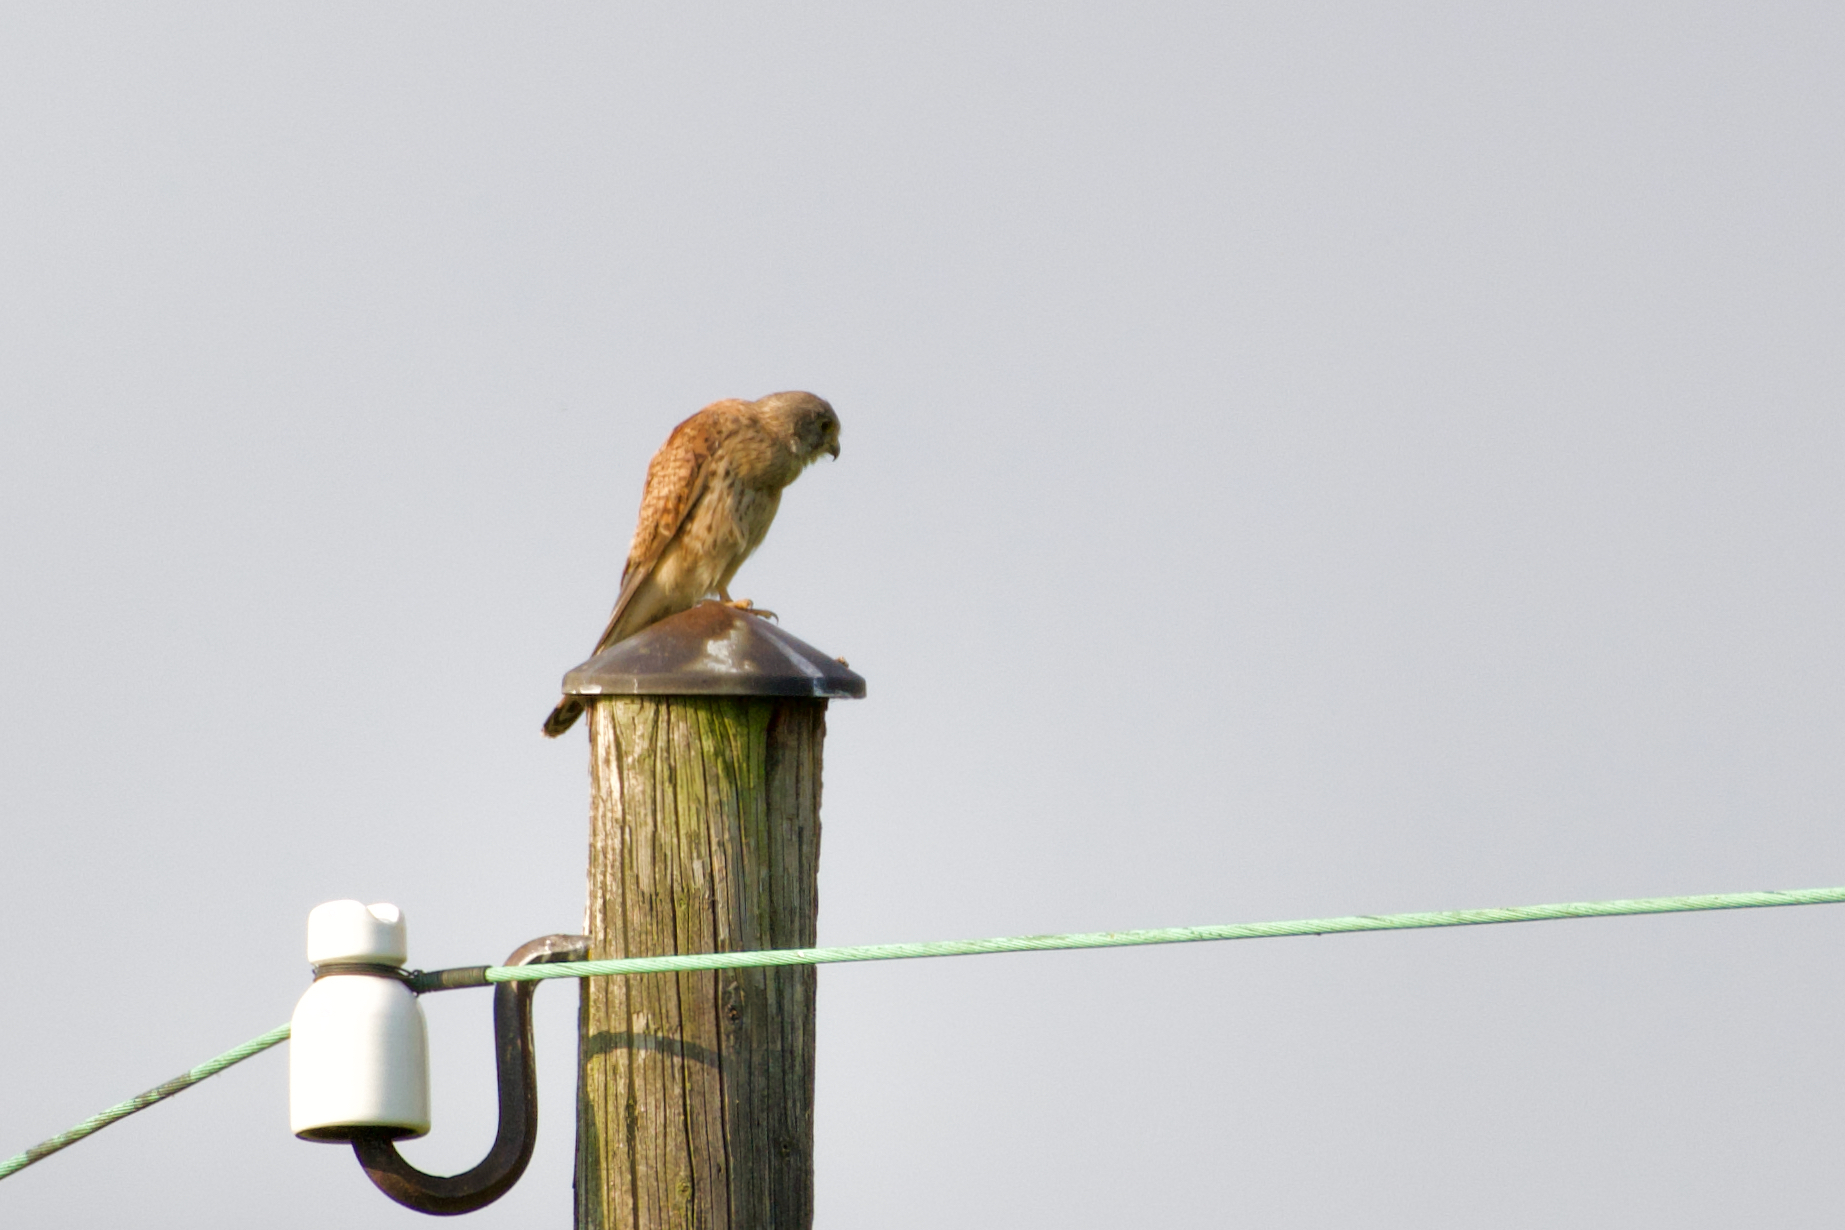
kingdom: Animalia
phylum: Chordata
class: Aves
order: Falconiformes
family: Falconidae
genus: Falco
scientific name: Falco tinnunculus
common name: Common kestrel
